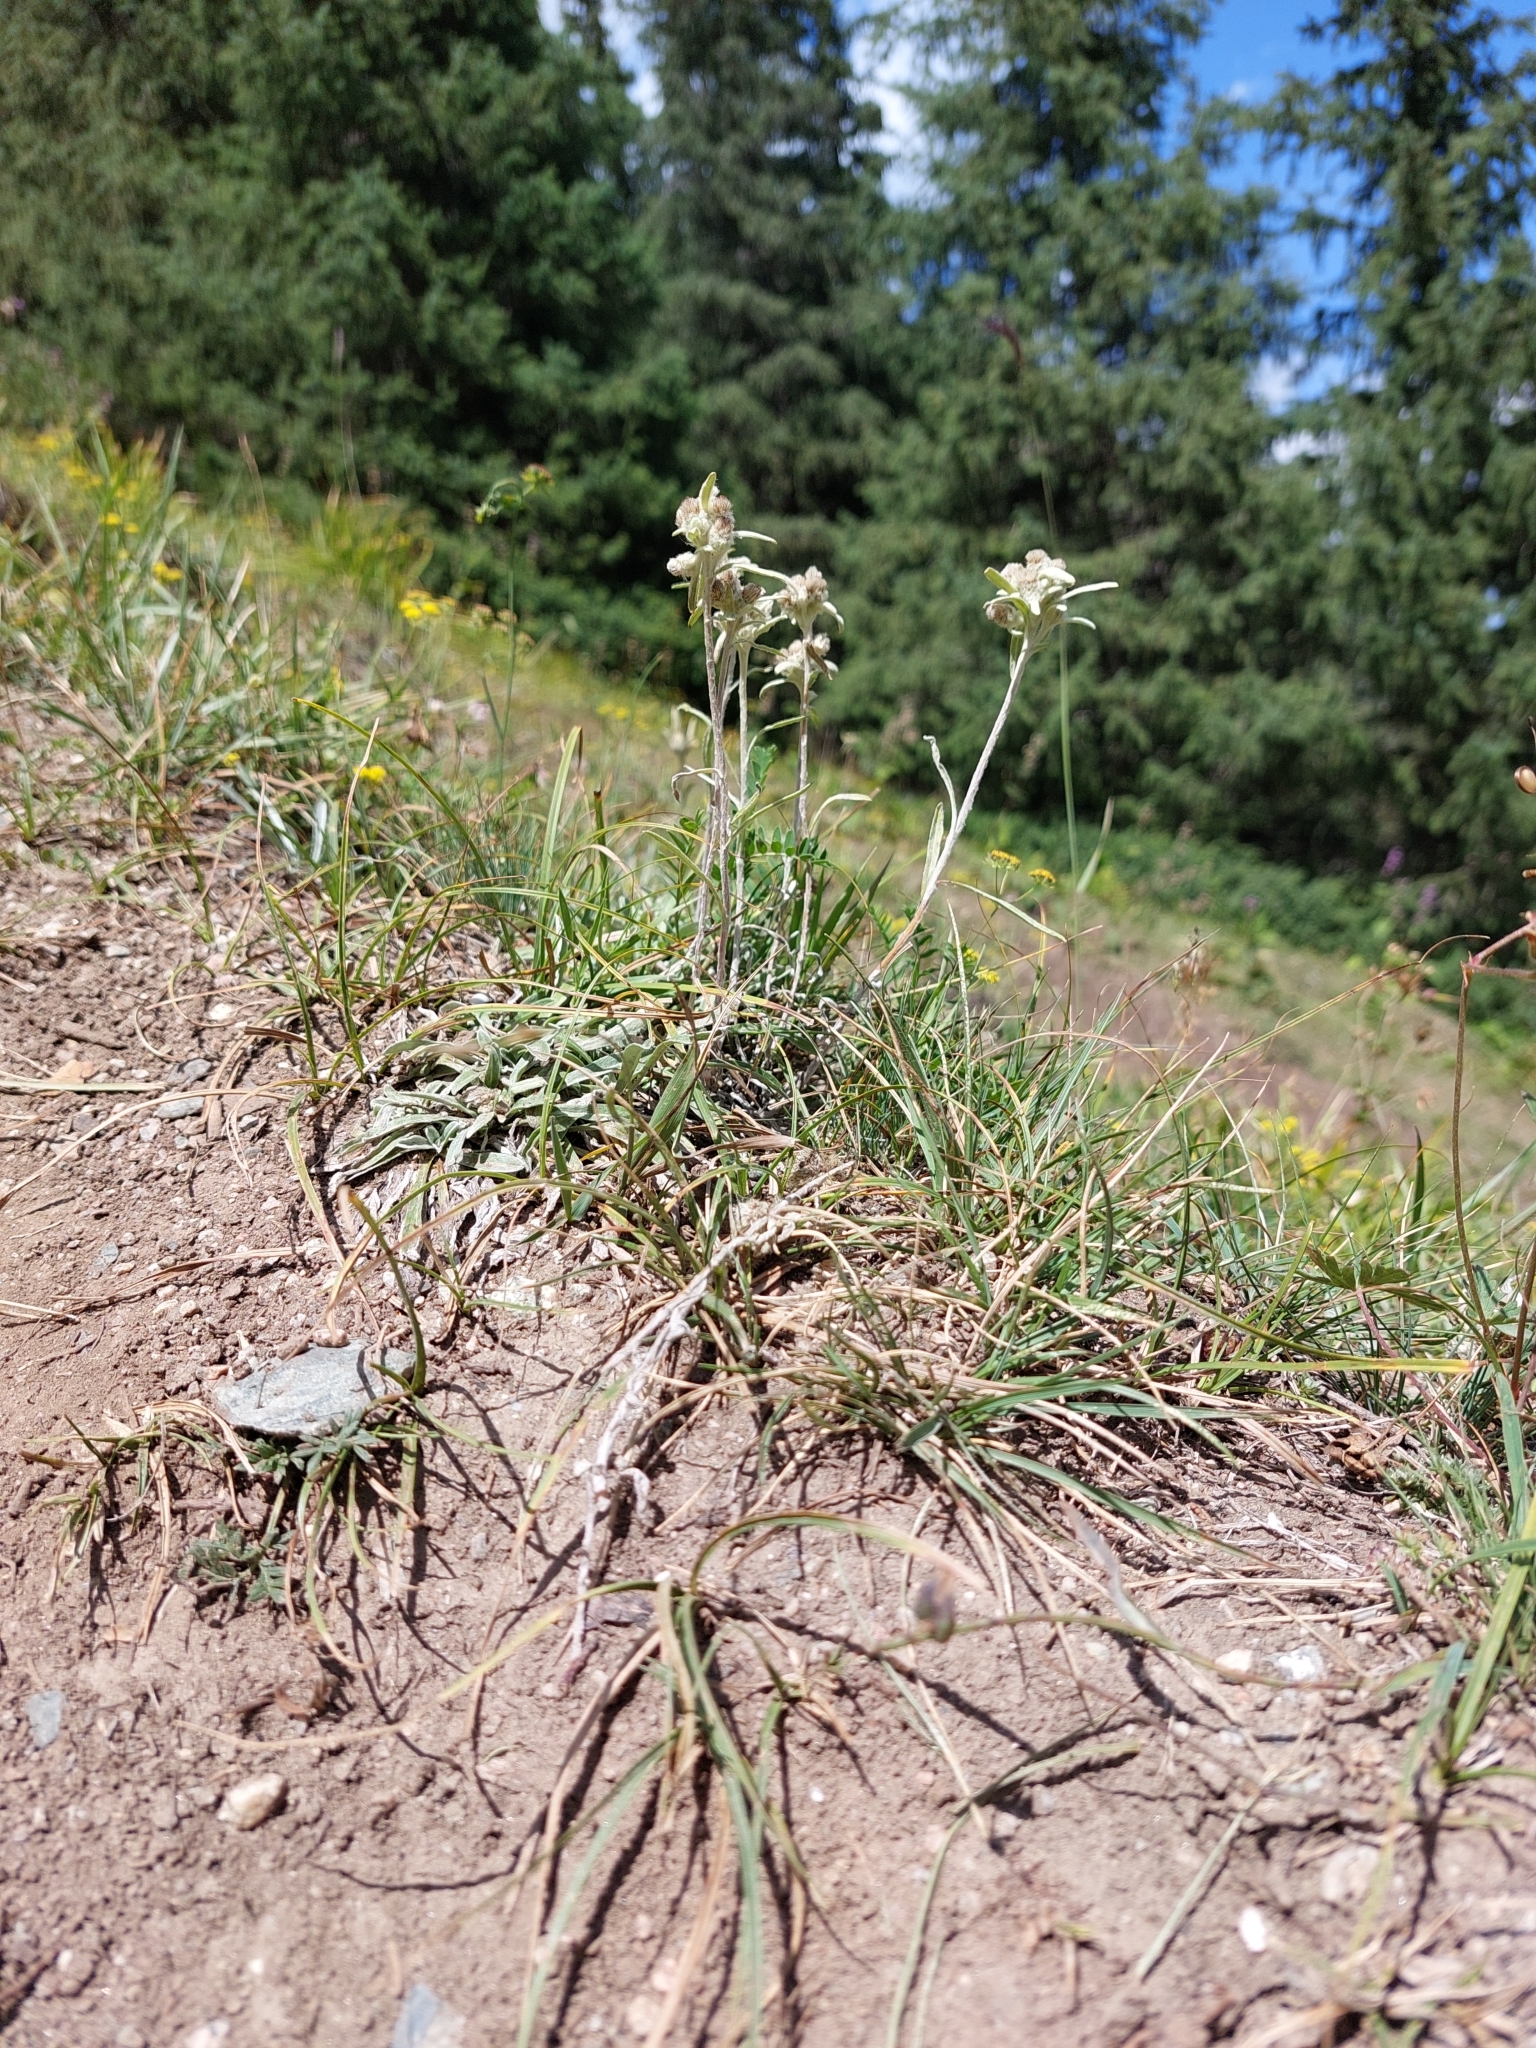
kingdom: Plantae
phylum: Tracheophyta
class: Magnoliopsida
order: Asterales
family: Asteraceae
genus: Leontopodium
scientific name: Leontopodium campestre
